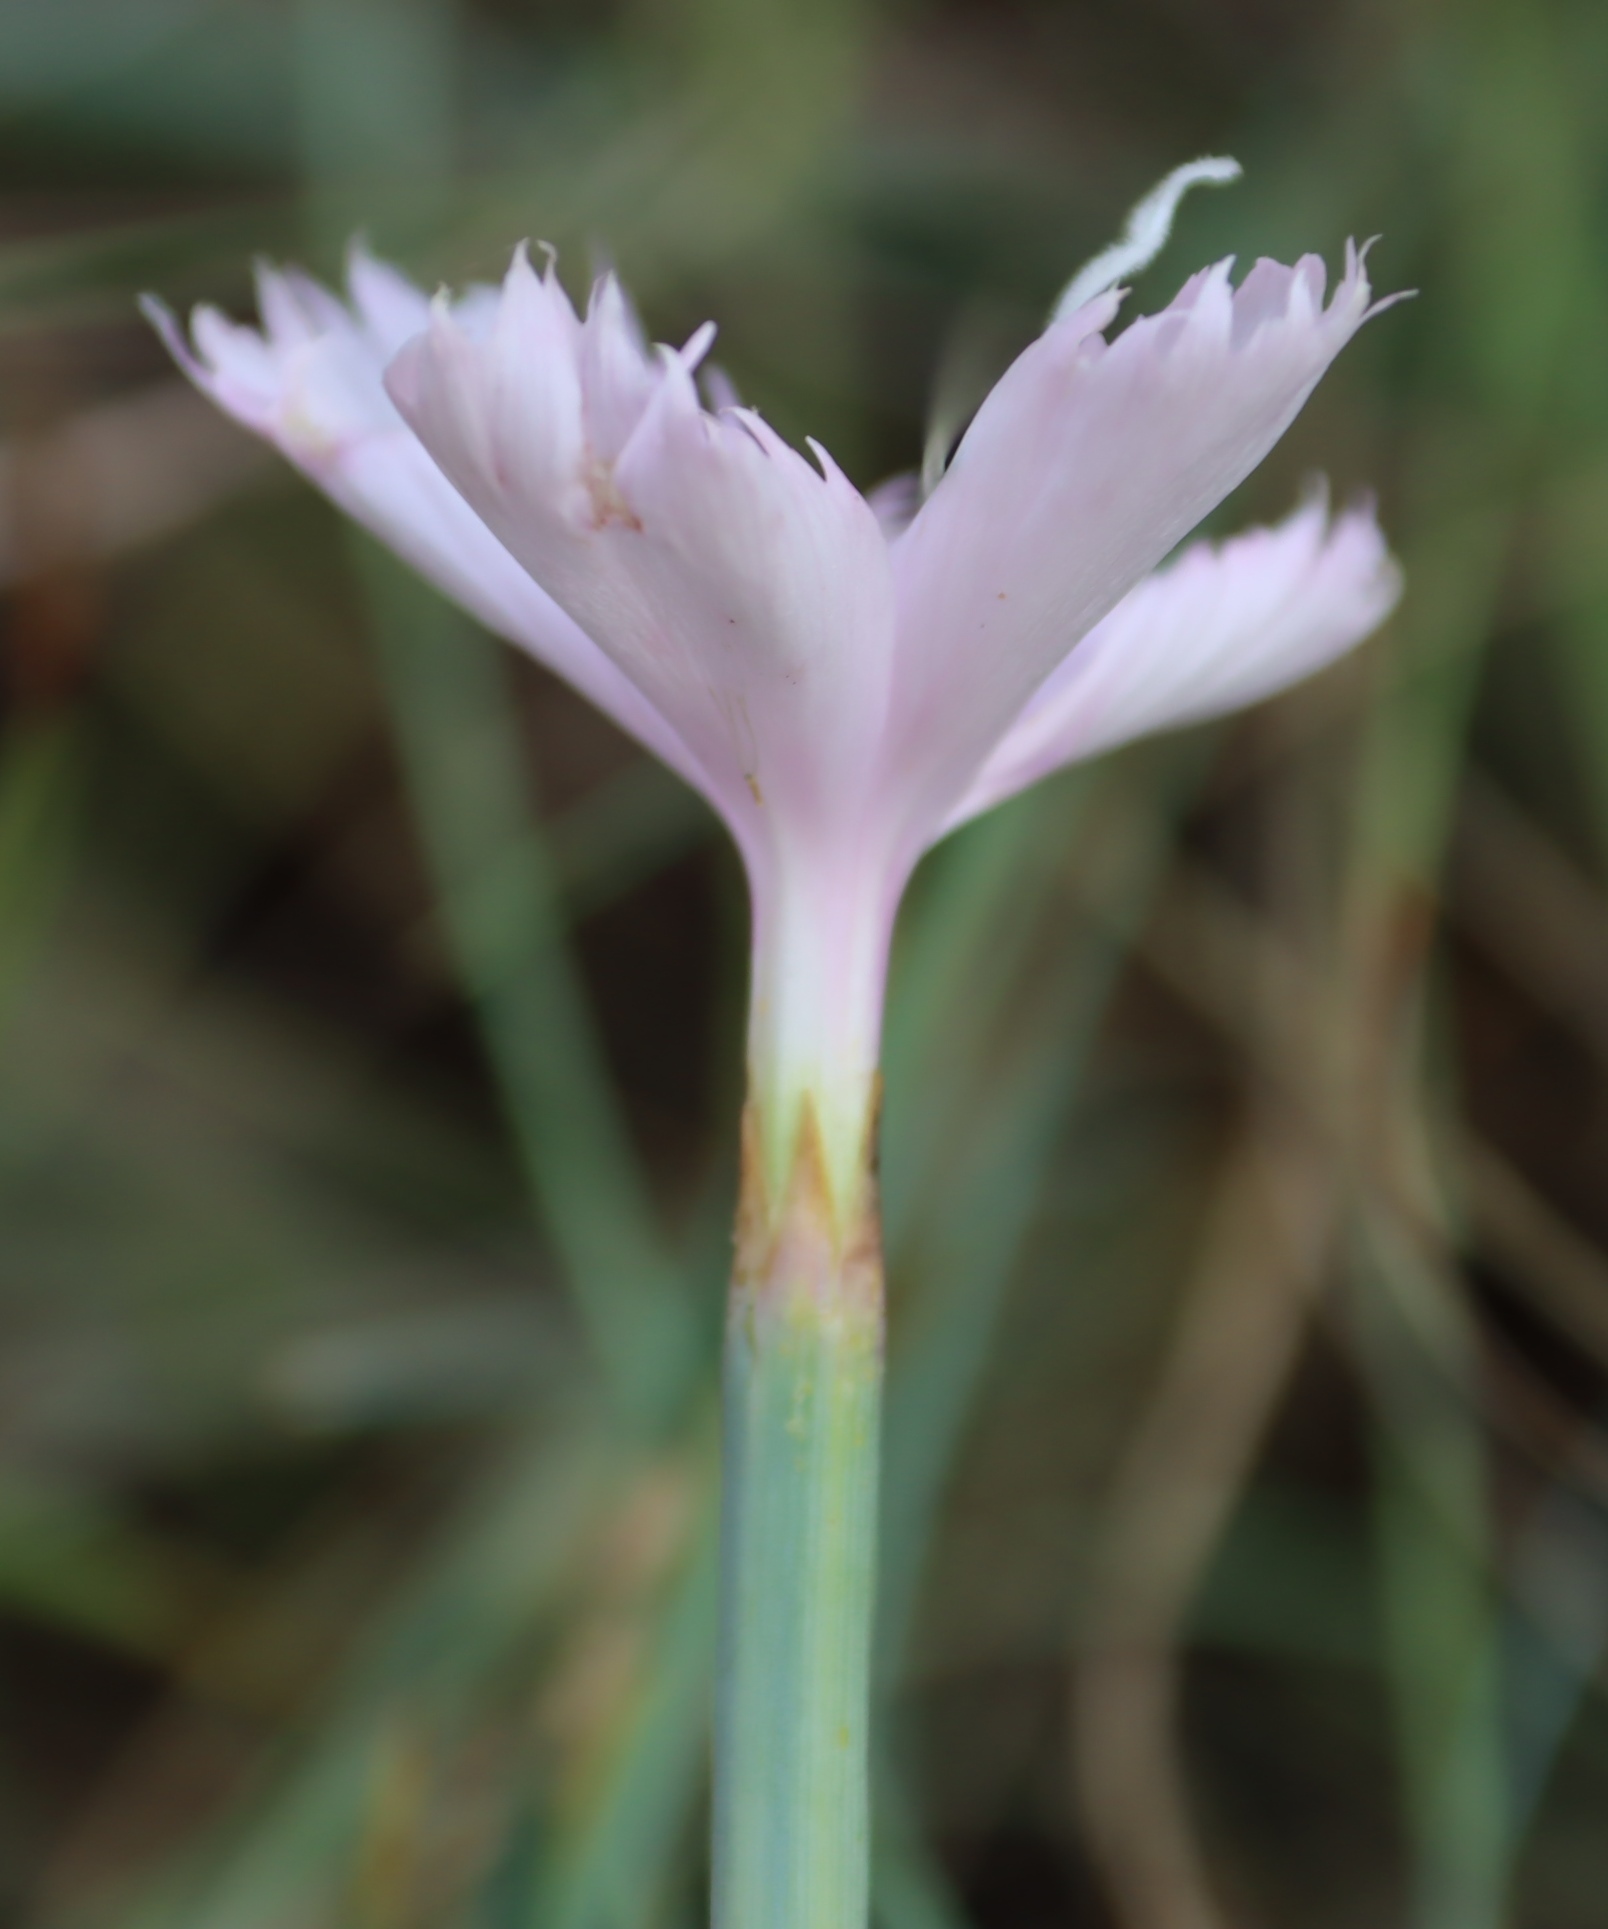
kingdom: Plantae
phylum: Tracheophyta
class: Magnoliopsida
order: Caryophyllales
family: Caryophyllaceae
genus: Dianthus
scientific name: Dianthus zeyheri
